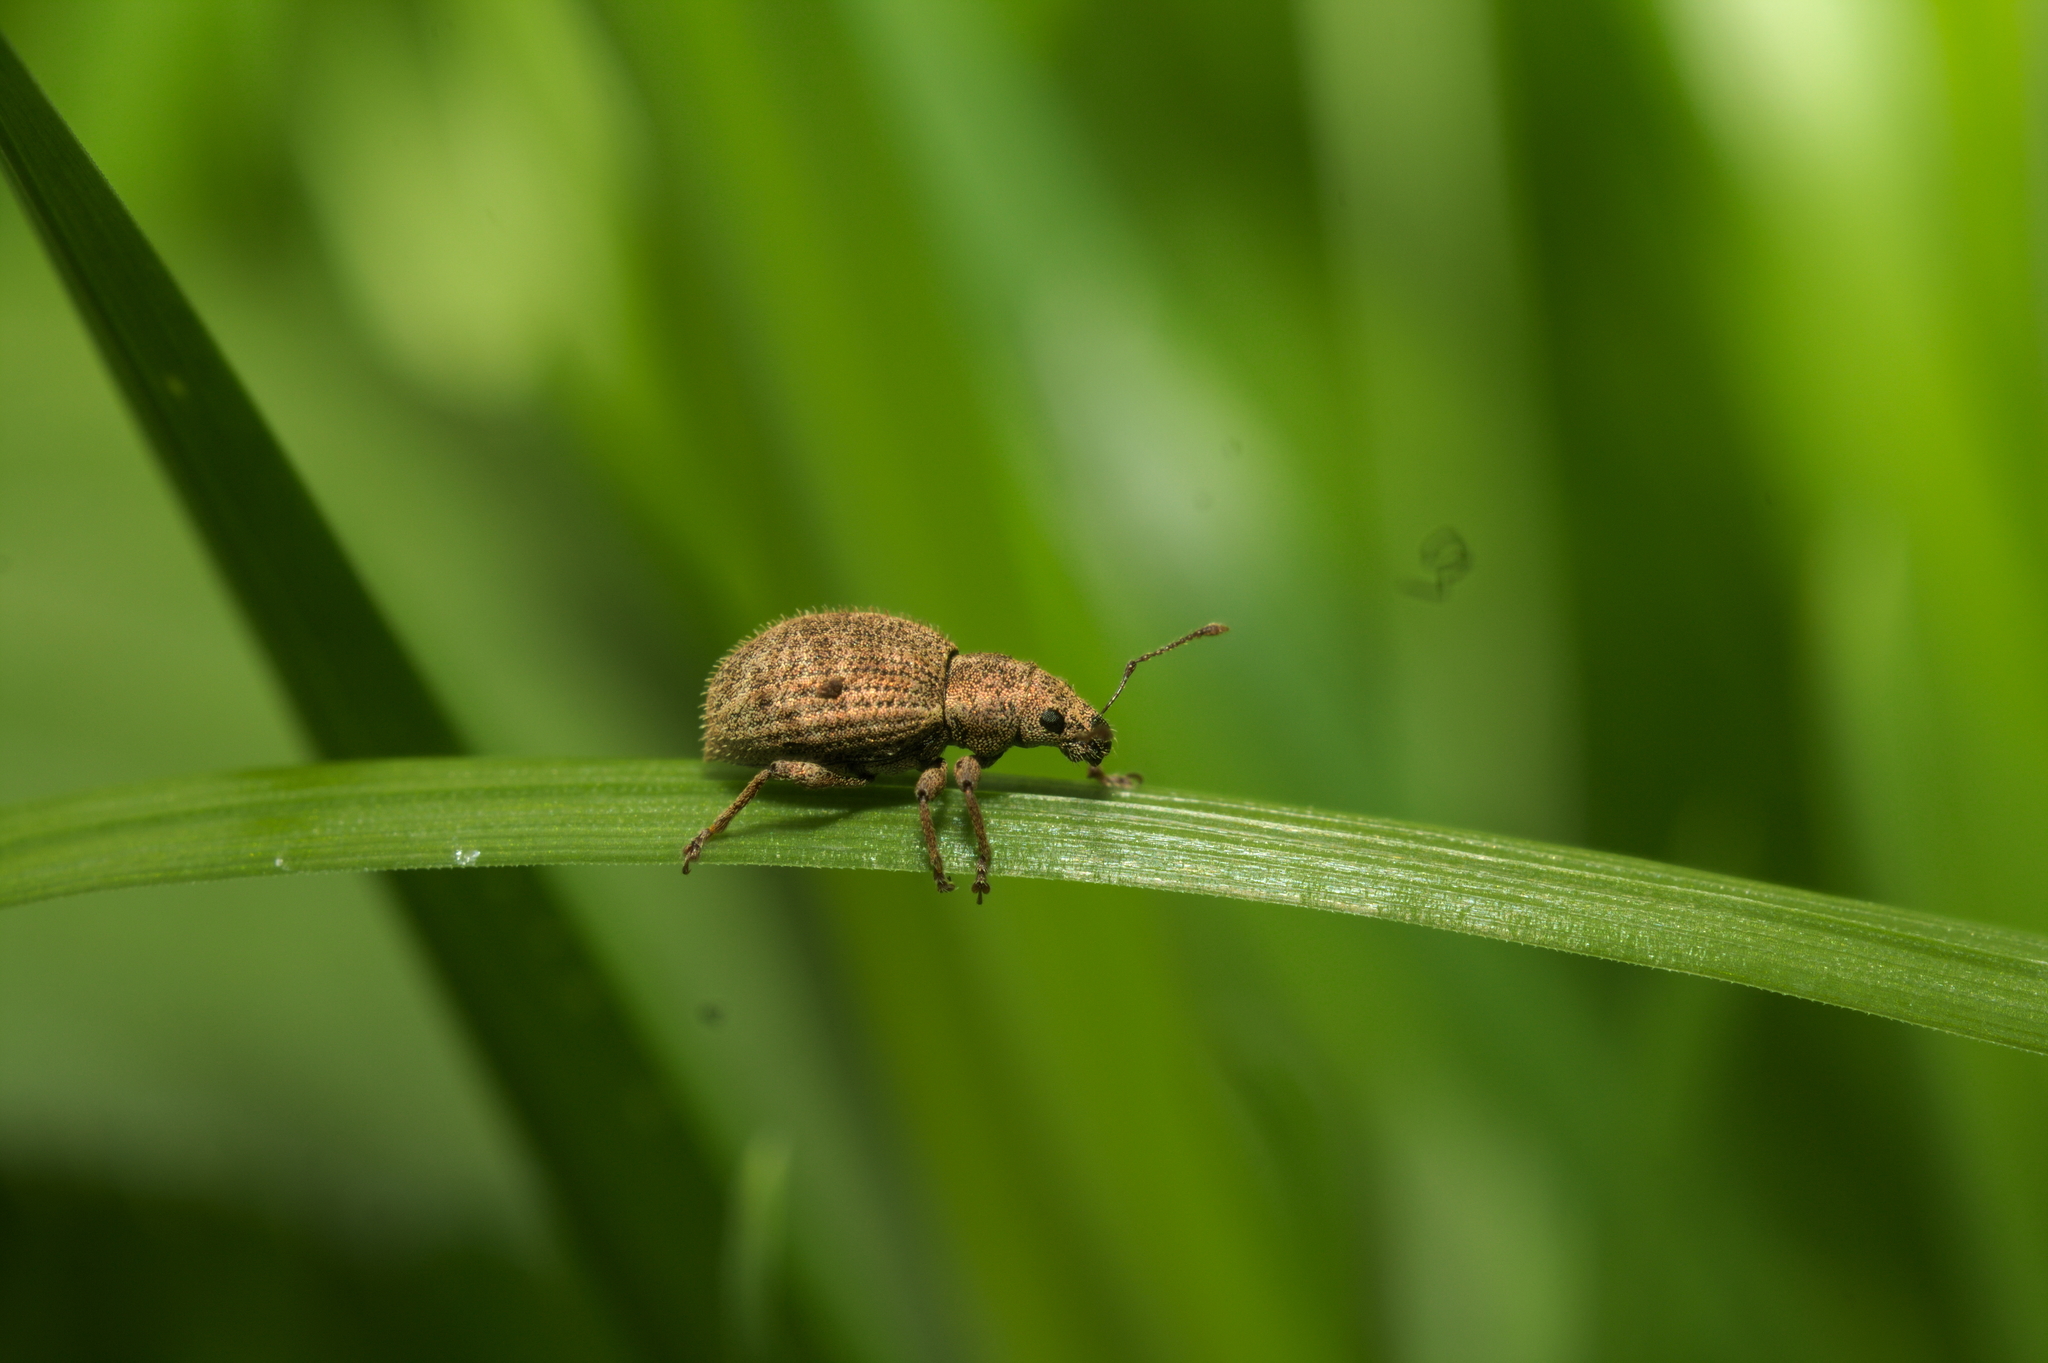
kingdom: Animalia
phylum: Arthropoda
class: Insecta
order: Coleoptera
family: Curculionidae
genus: Sciaphilus
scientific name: Sciaphilus asperatus
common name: Weevil
